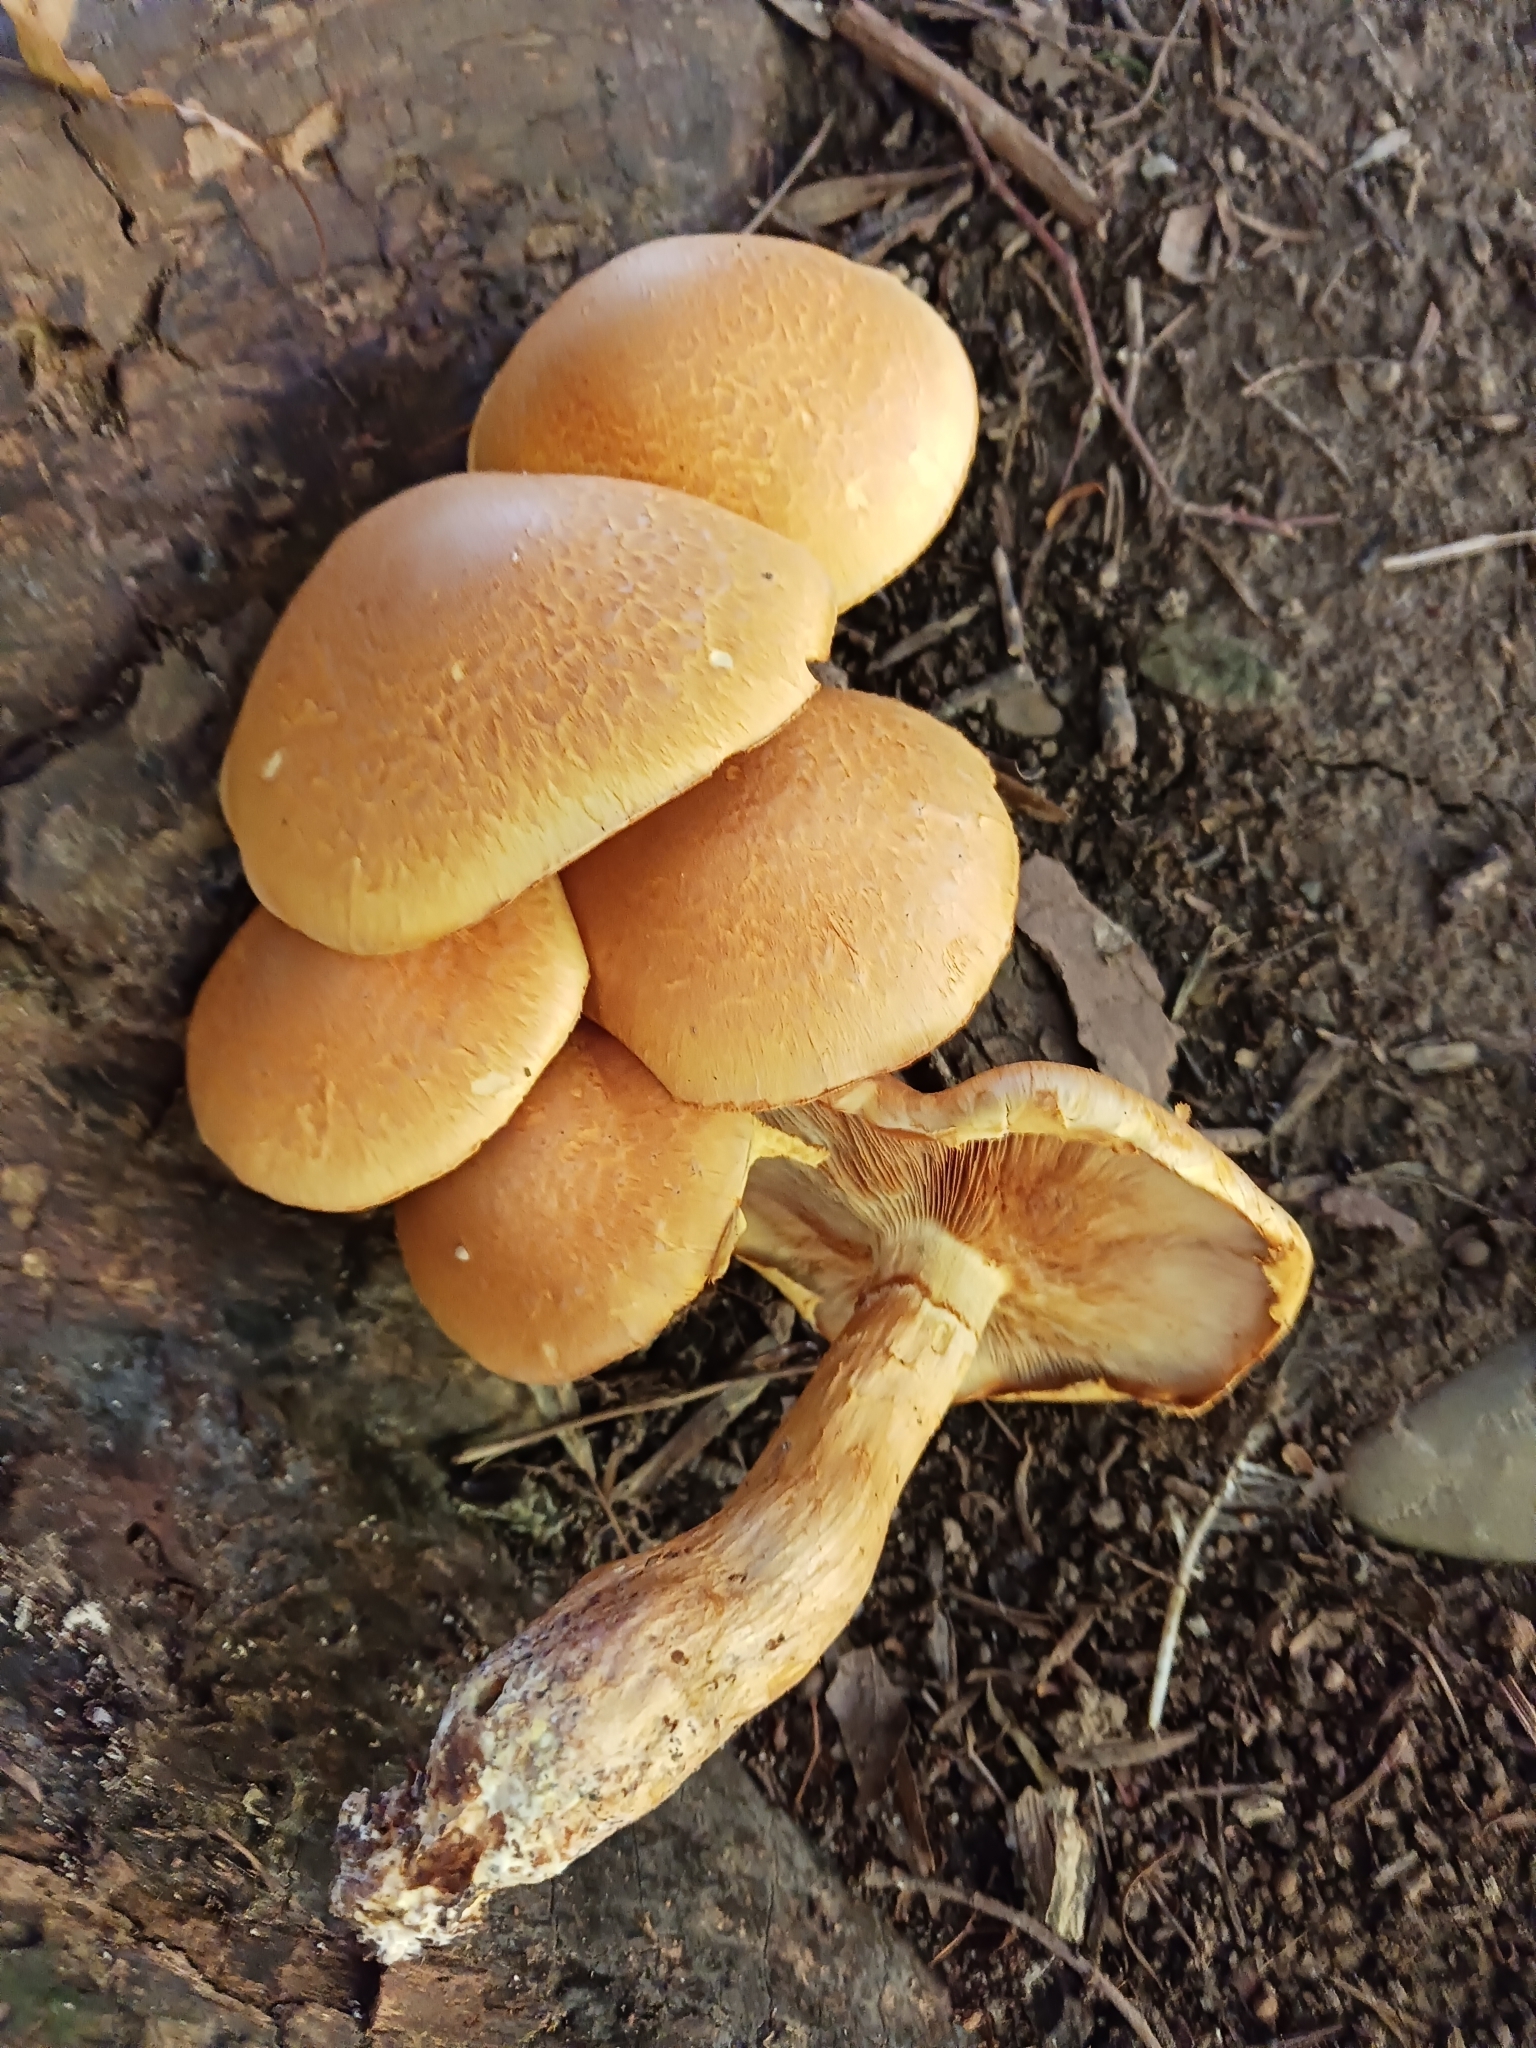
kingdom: Fungi
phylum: Basidiomycota
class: Agaricomycetes
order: Agaricales
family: Hymenogastraceae
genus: Gymnopilus
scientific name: Gymnopilus junonius
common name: Spectacular rustgill
